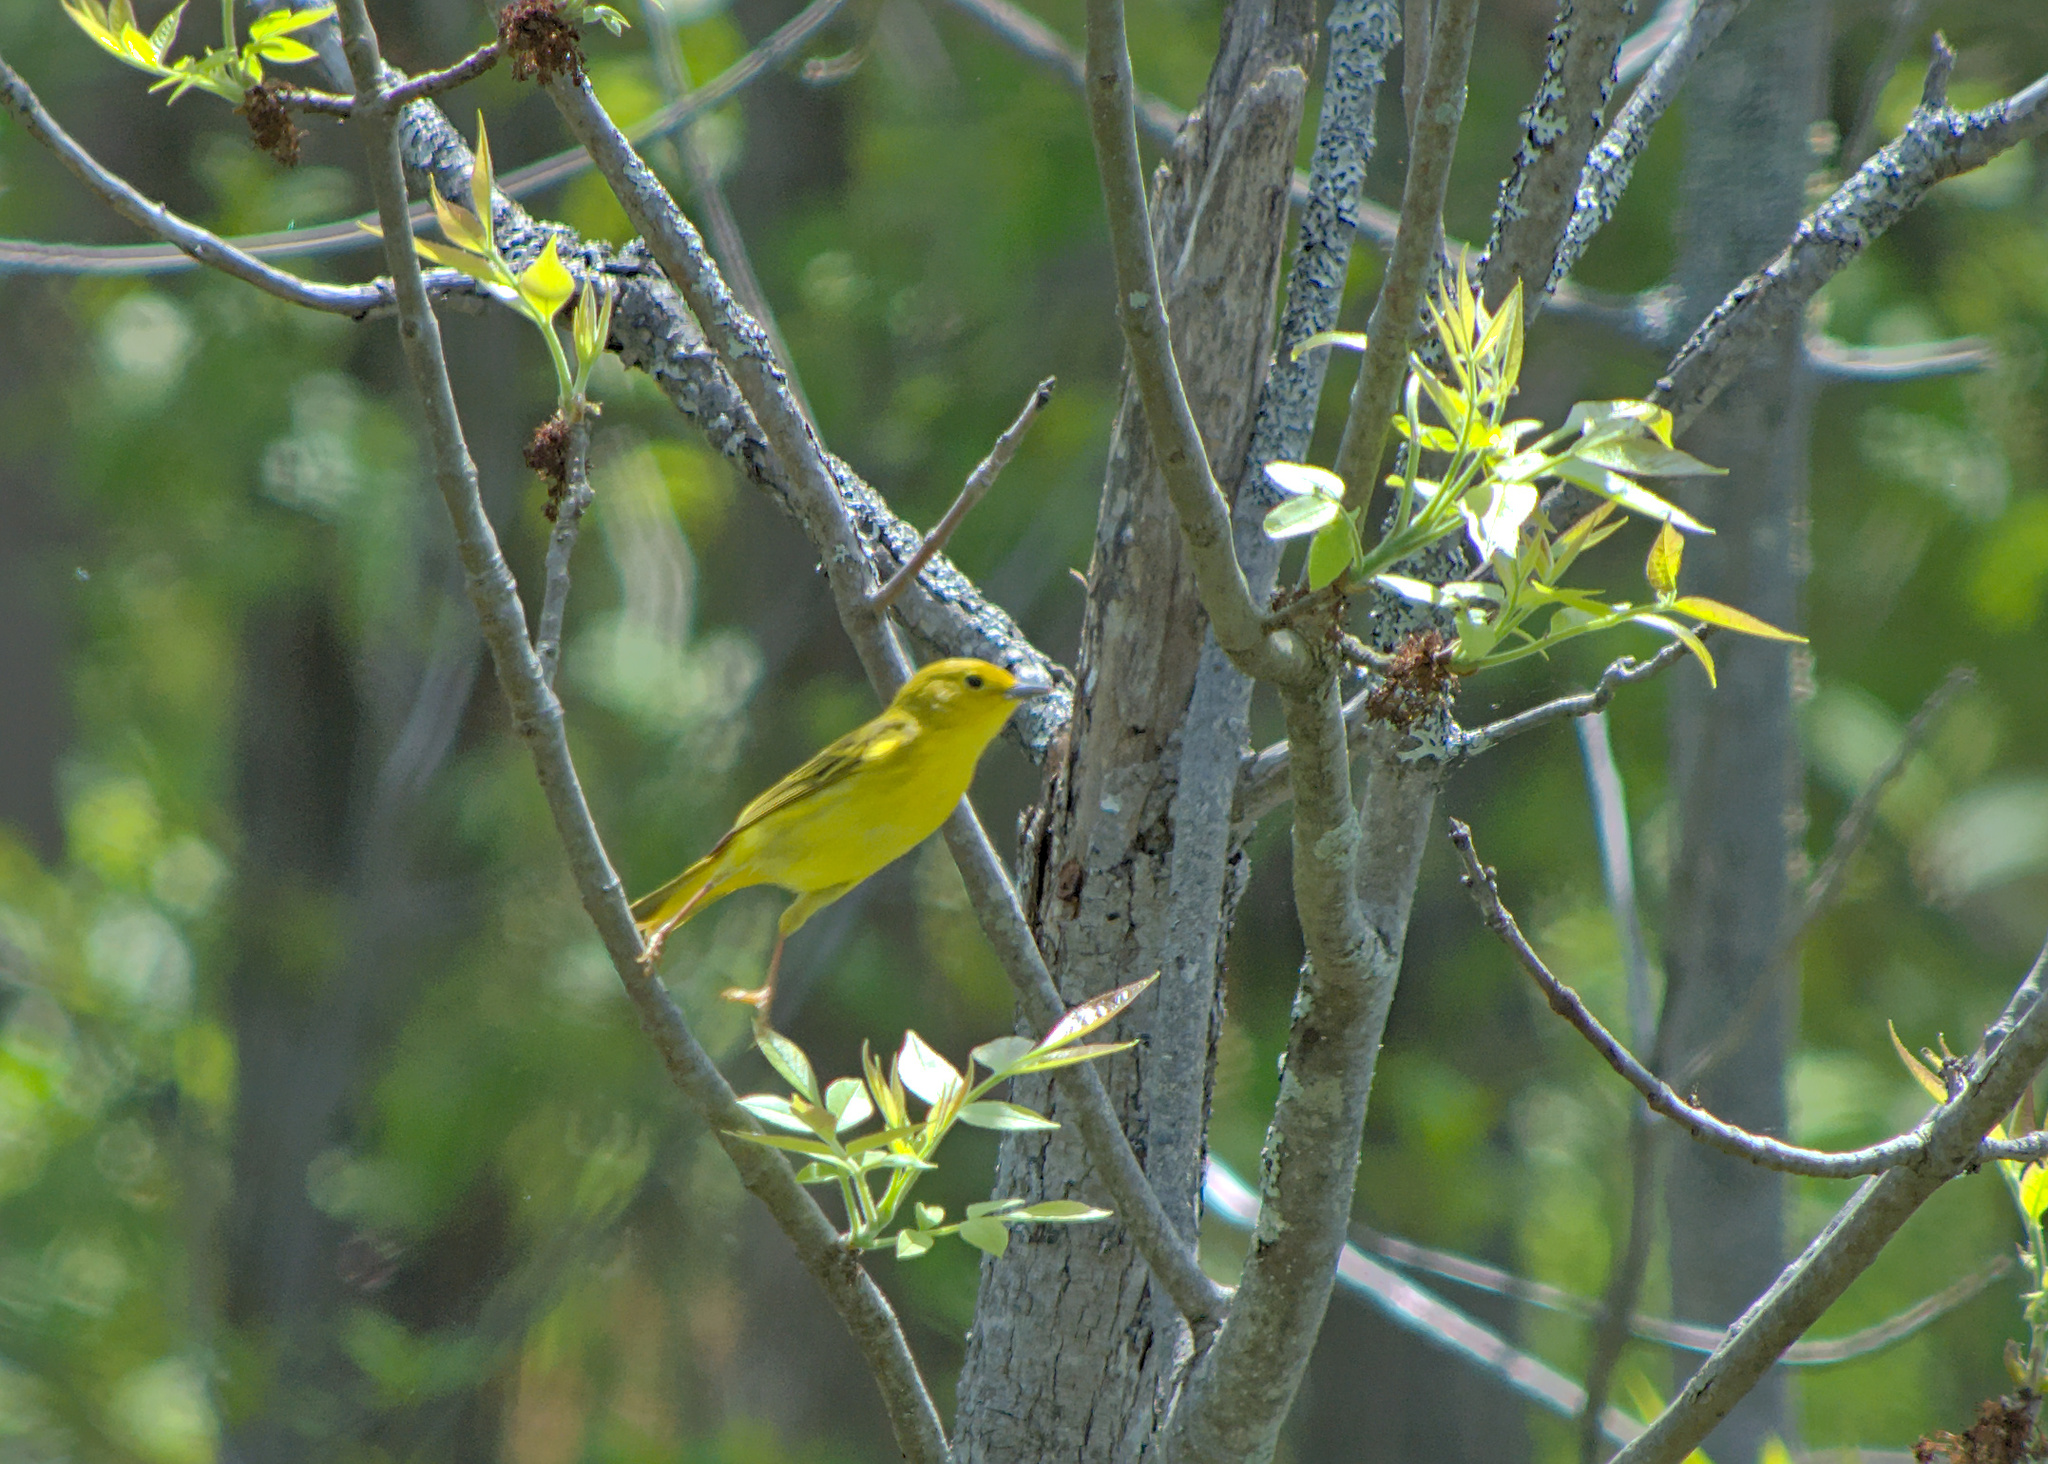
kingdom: Animalia
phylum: Chordata
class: Aves
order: Passeriformes
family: Parulidae
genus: Setophaga
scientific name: Setophaga petechia
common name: Yellow warbler
